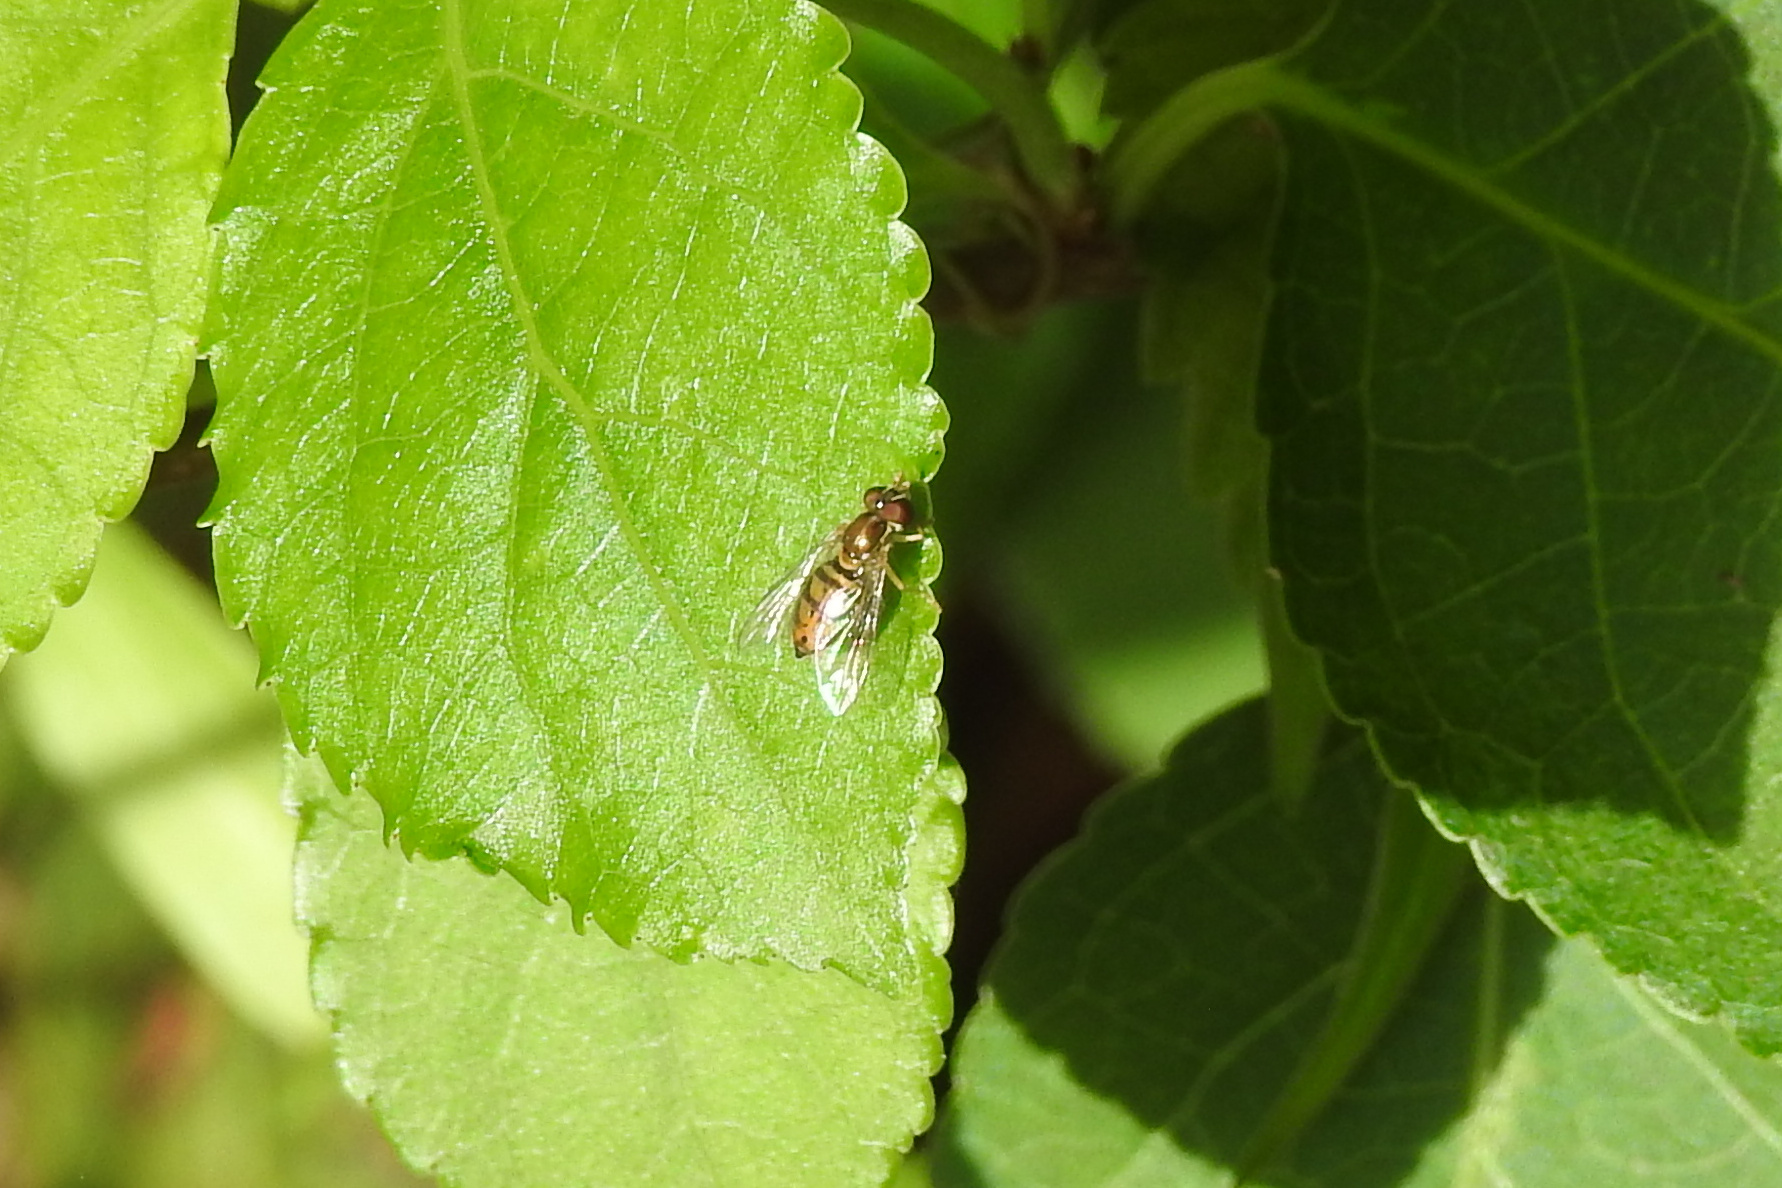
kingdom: Animalia
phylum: Arthropoda
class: Insecta
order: Diptera
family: Syrphidae
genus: Toxomerus
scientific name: Toxomerus marginatus
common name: Syrphid fly
